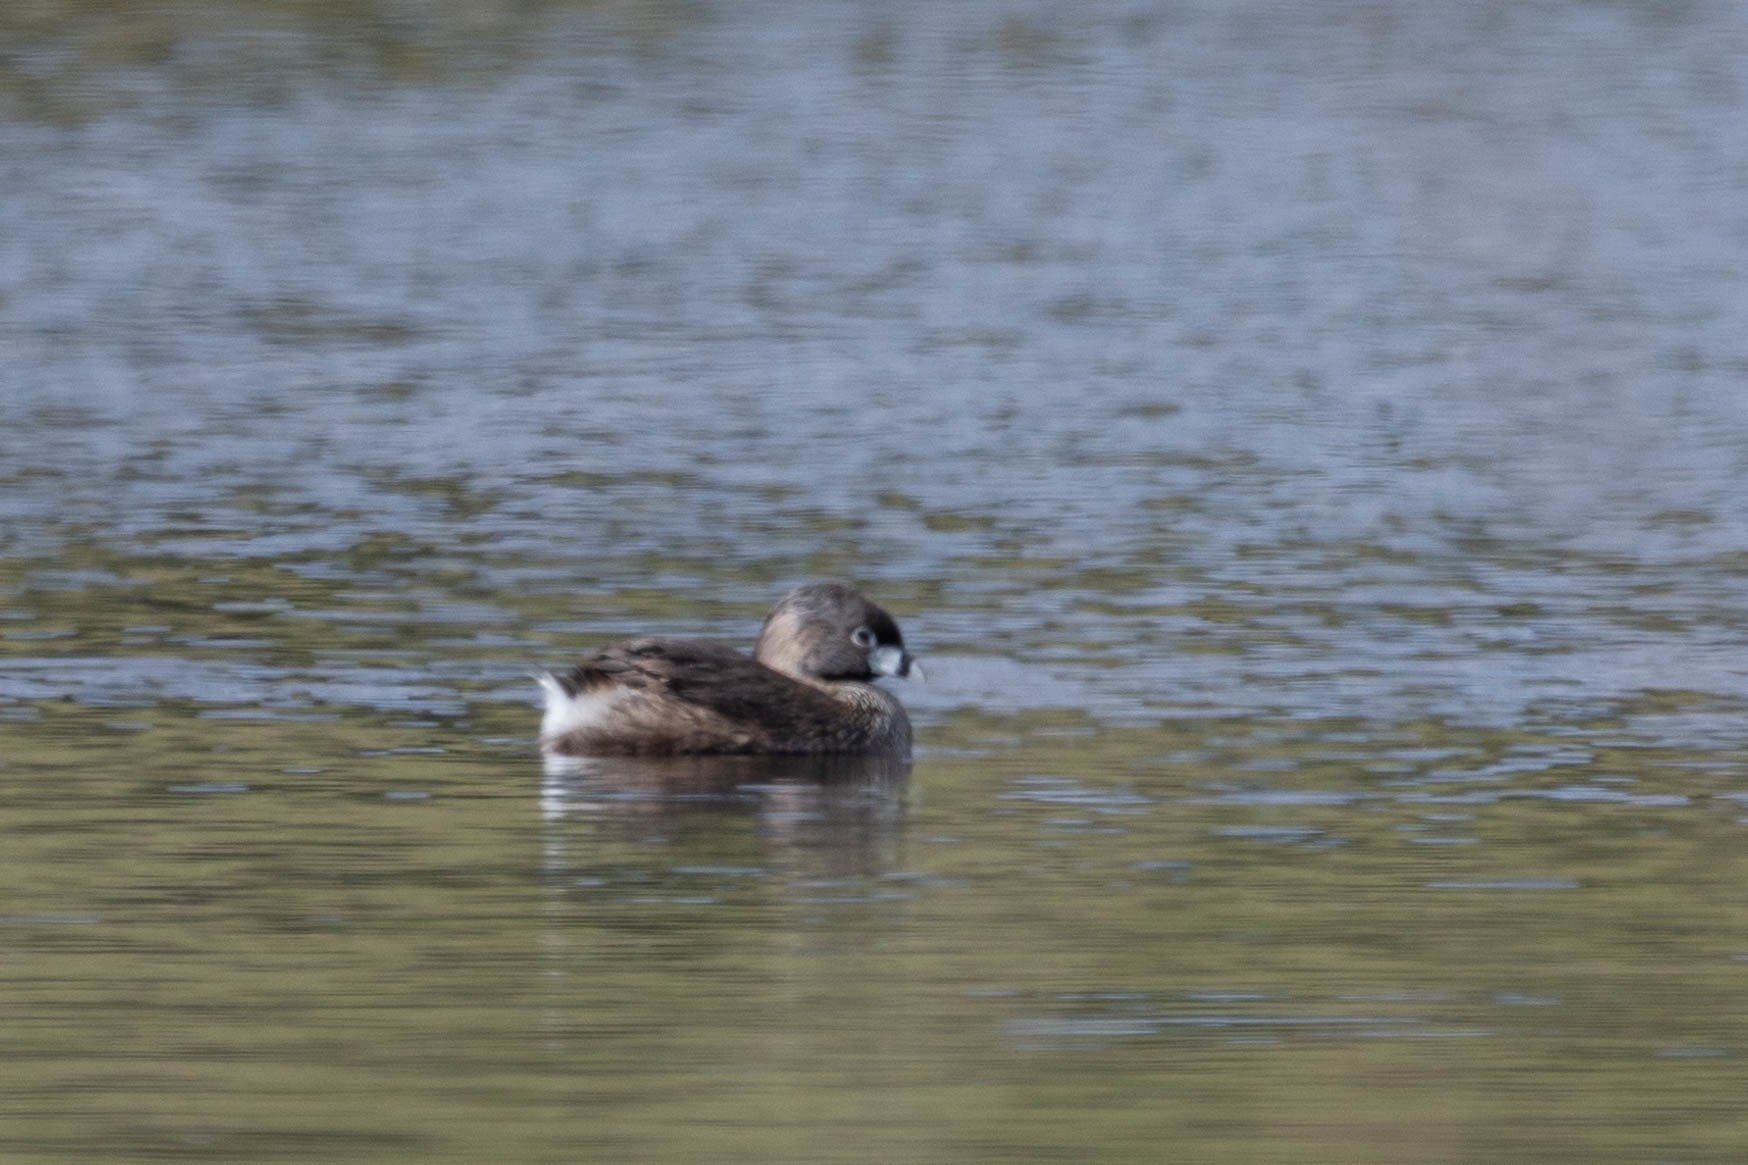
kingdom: Animalia
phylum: Chordata
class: Aves
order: Podicipediformes
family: Podicipedidae
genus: Podilymbus
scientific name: Podilymbus podiceps
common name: Pied-billed grebe
